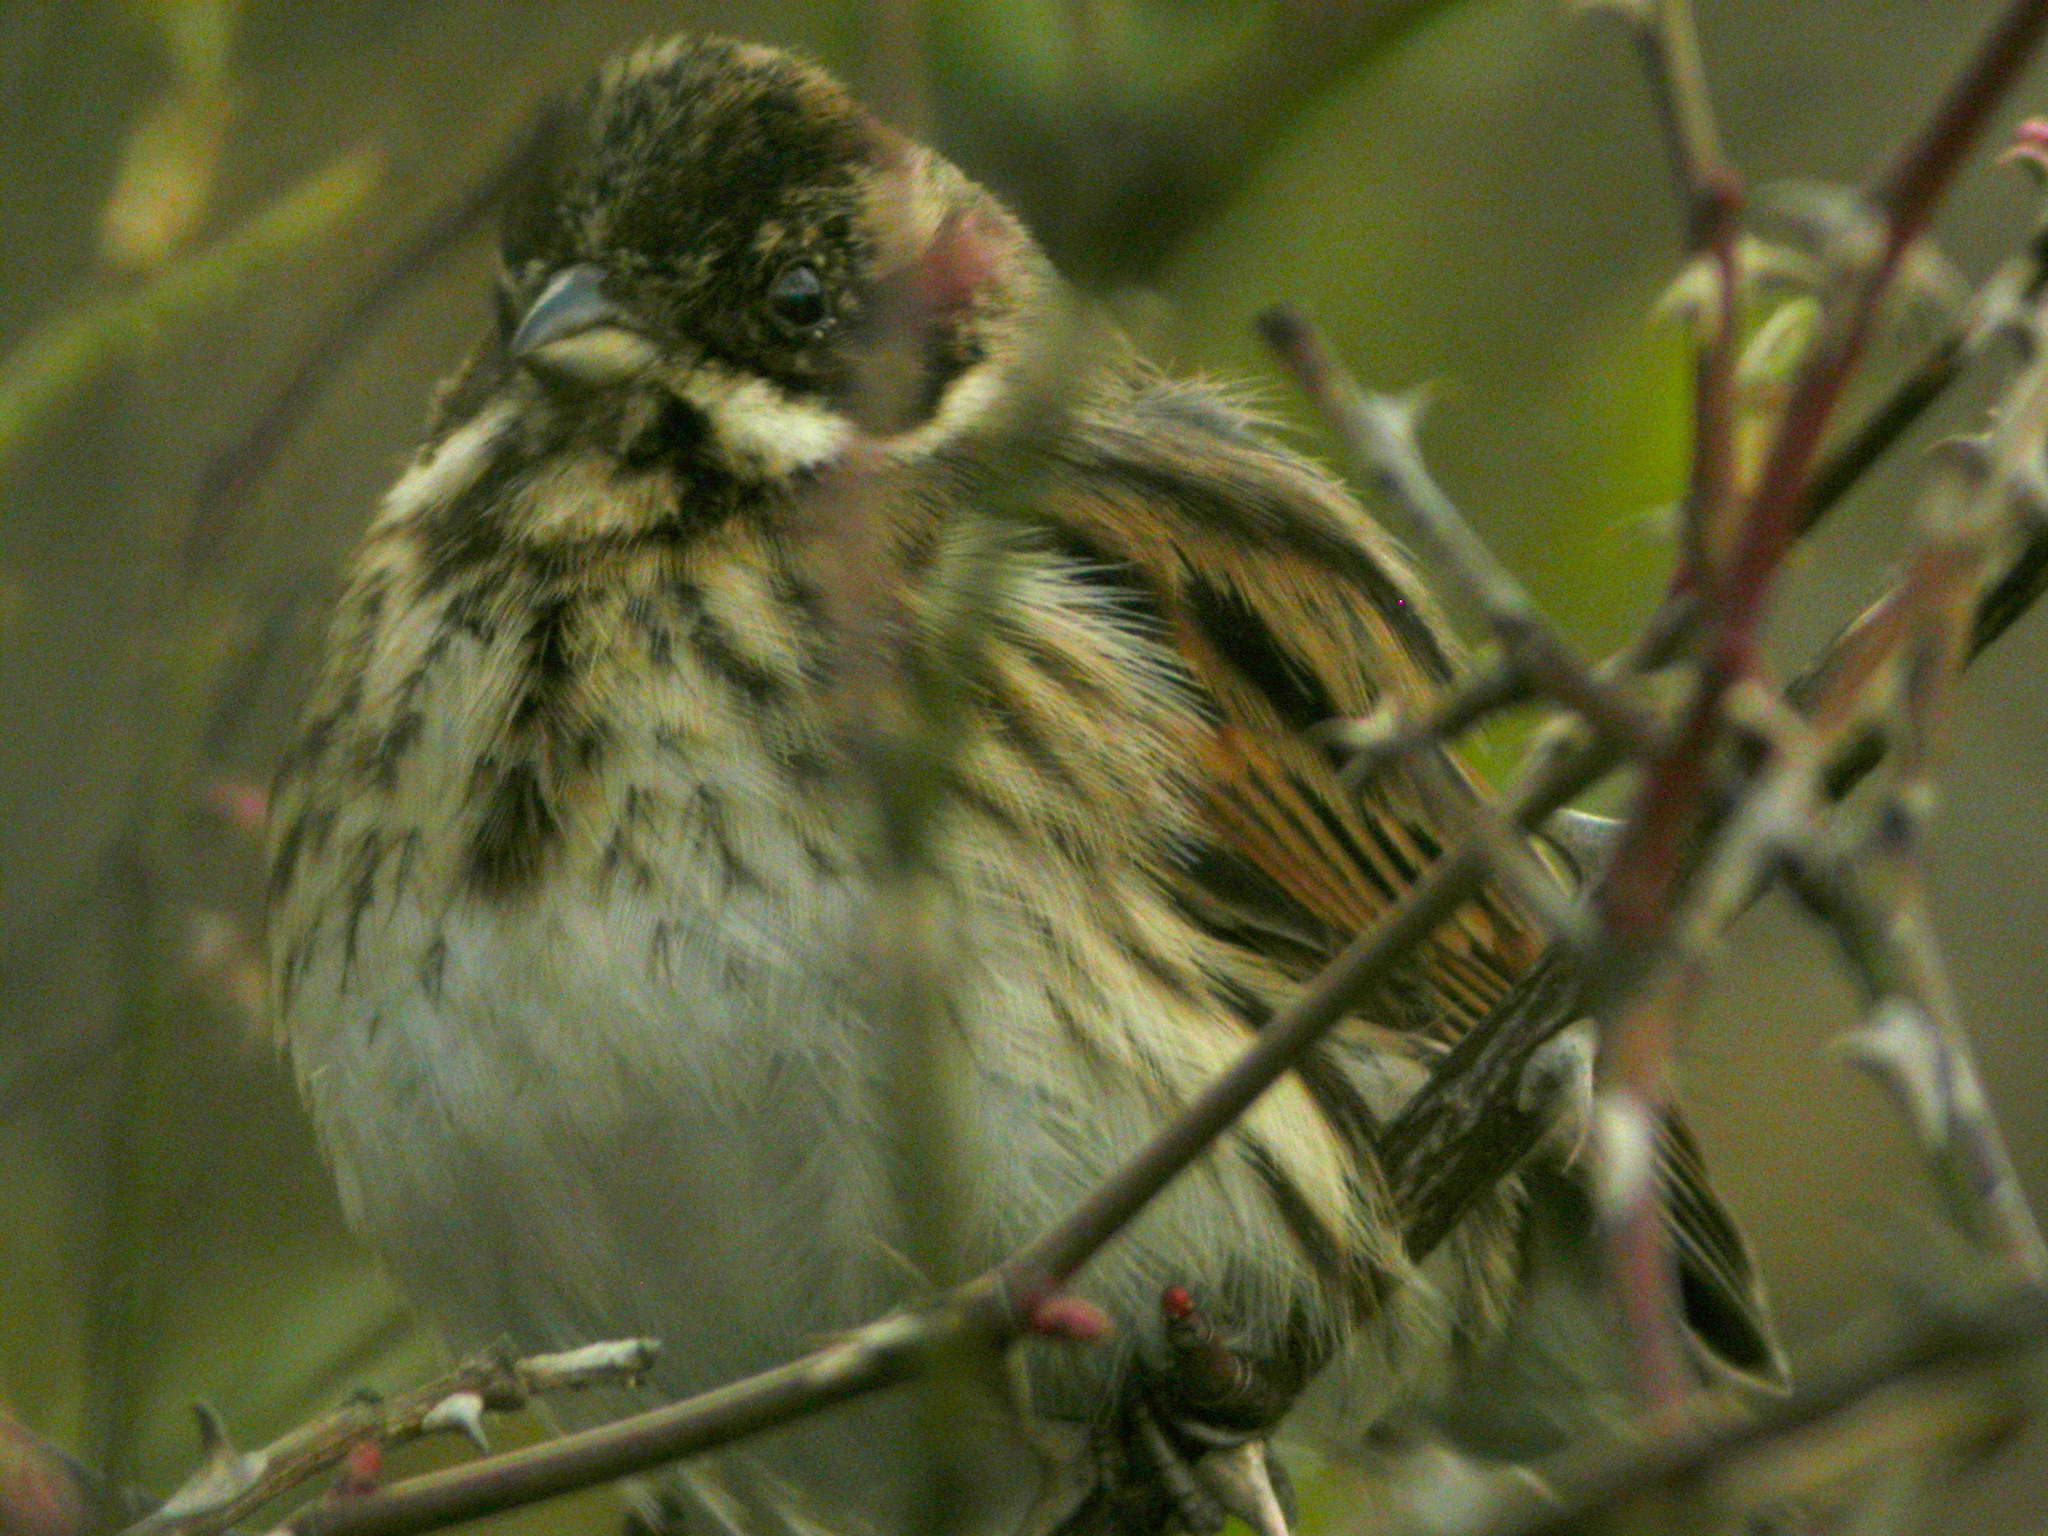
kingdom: Animalia
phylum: Chordata
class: Aves
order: Passeriformes
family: Emberizidae
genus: Emberiza
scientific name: Emberiza schoeniclus
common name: Reed bunting
